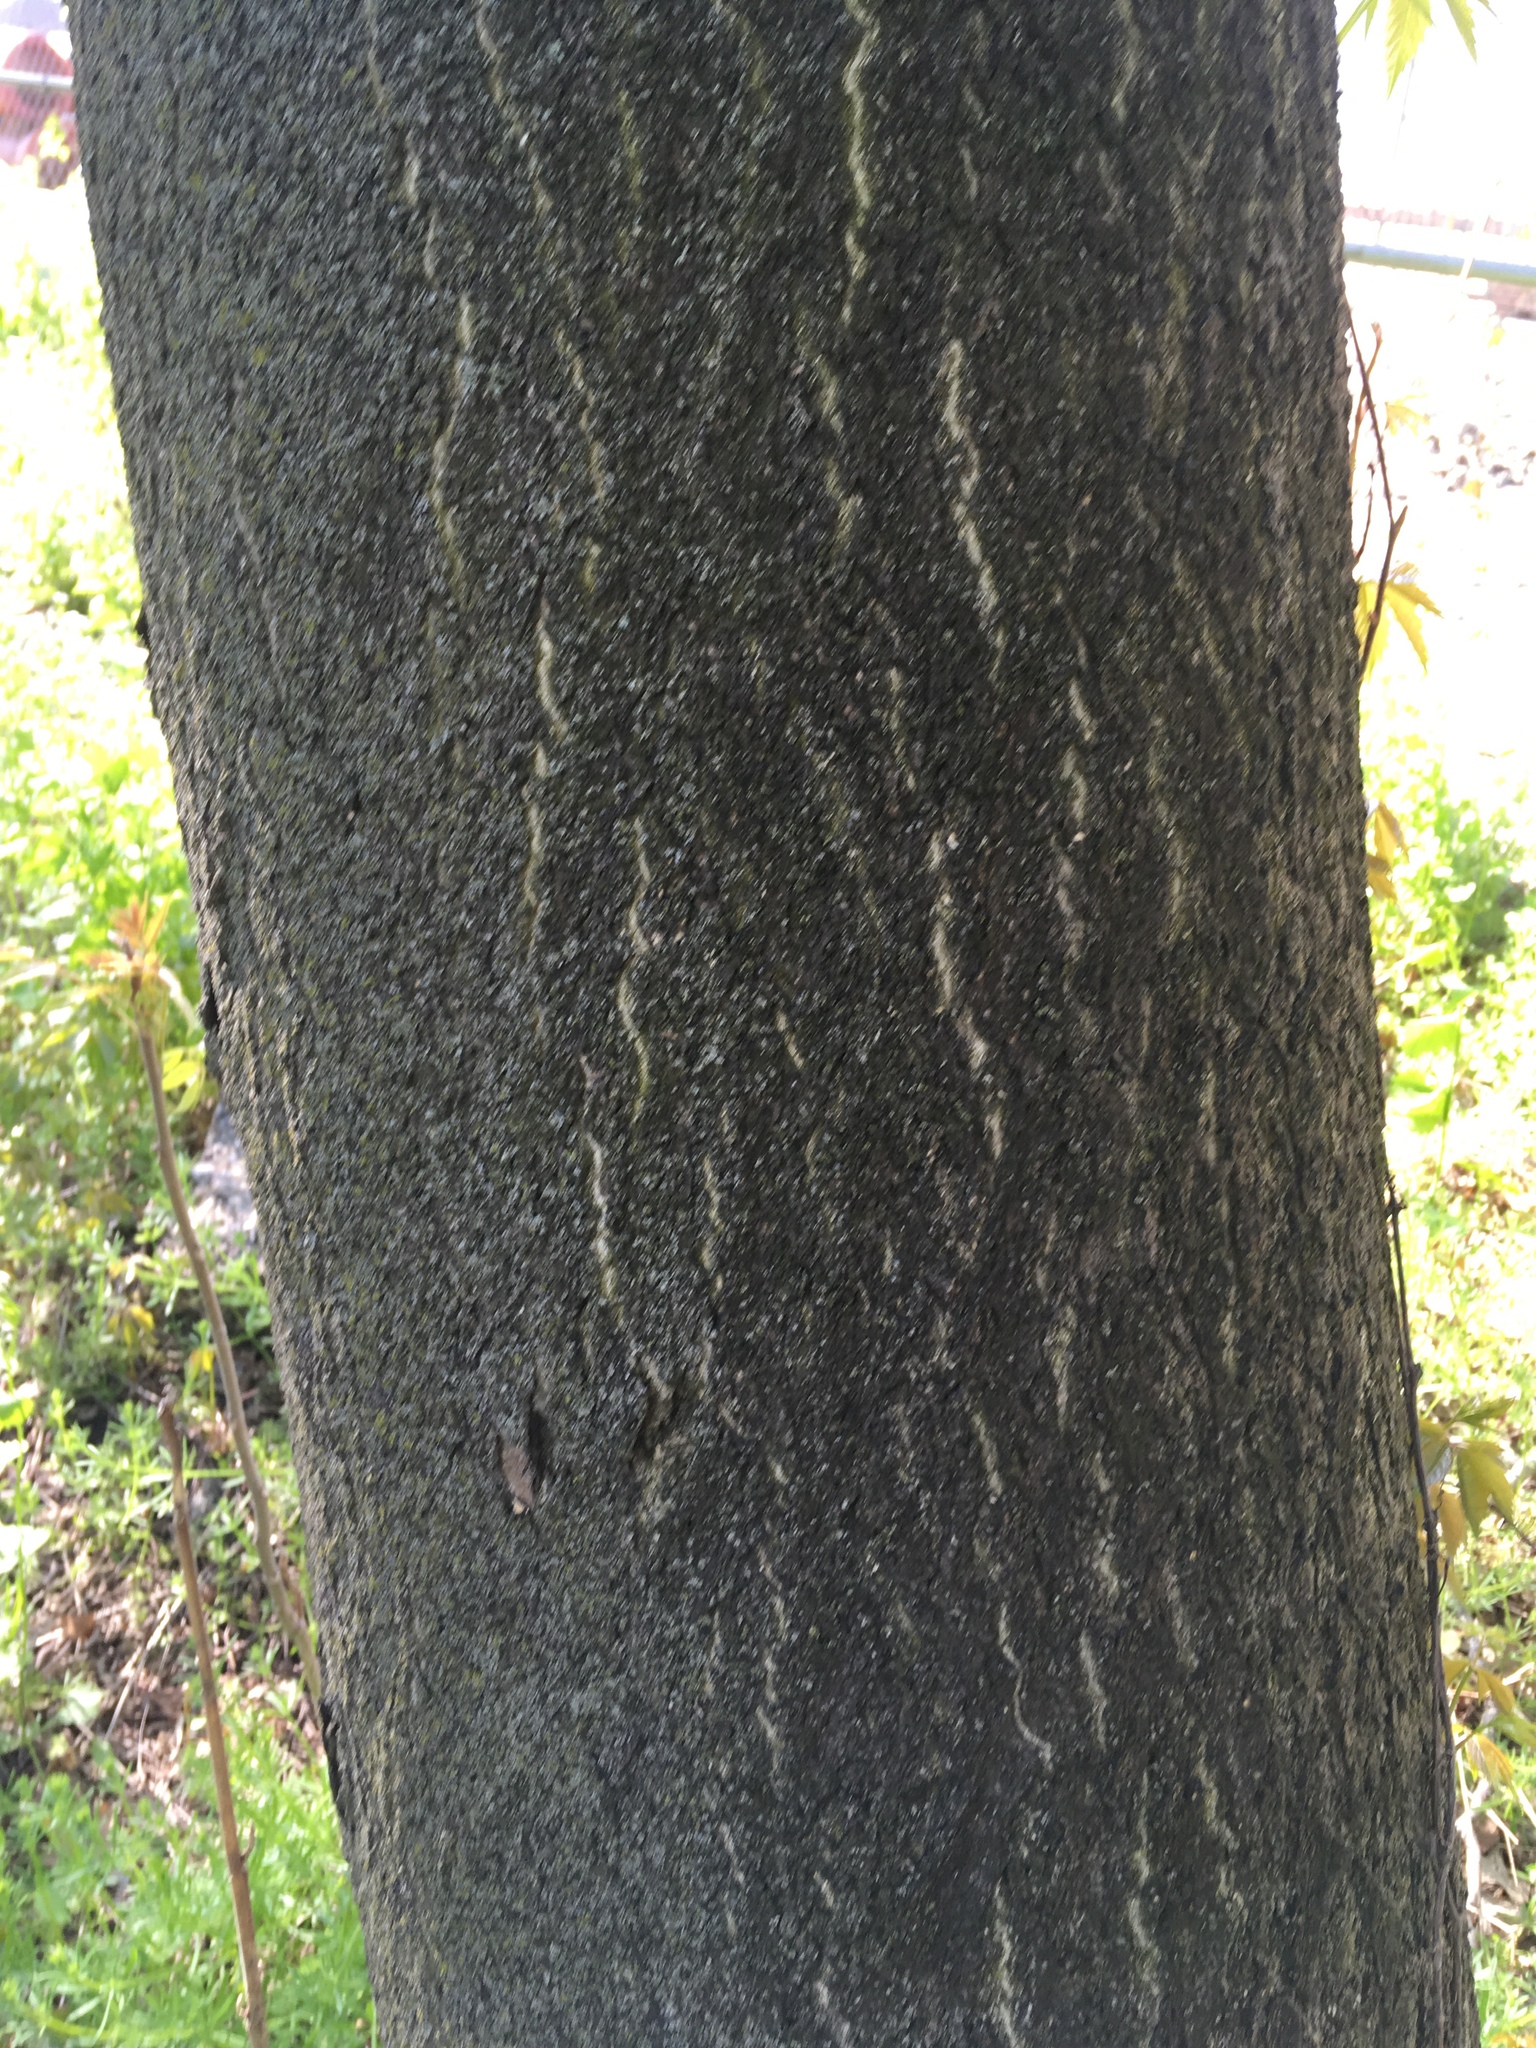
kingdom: Plantae
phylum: Tracheophyta
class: Magnoliopsida
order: Sapindales
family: Simaroubaceae
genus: Ailanthus
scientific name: Ailanthus altissima
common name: Tree-of-heaven
